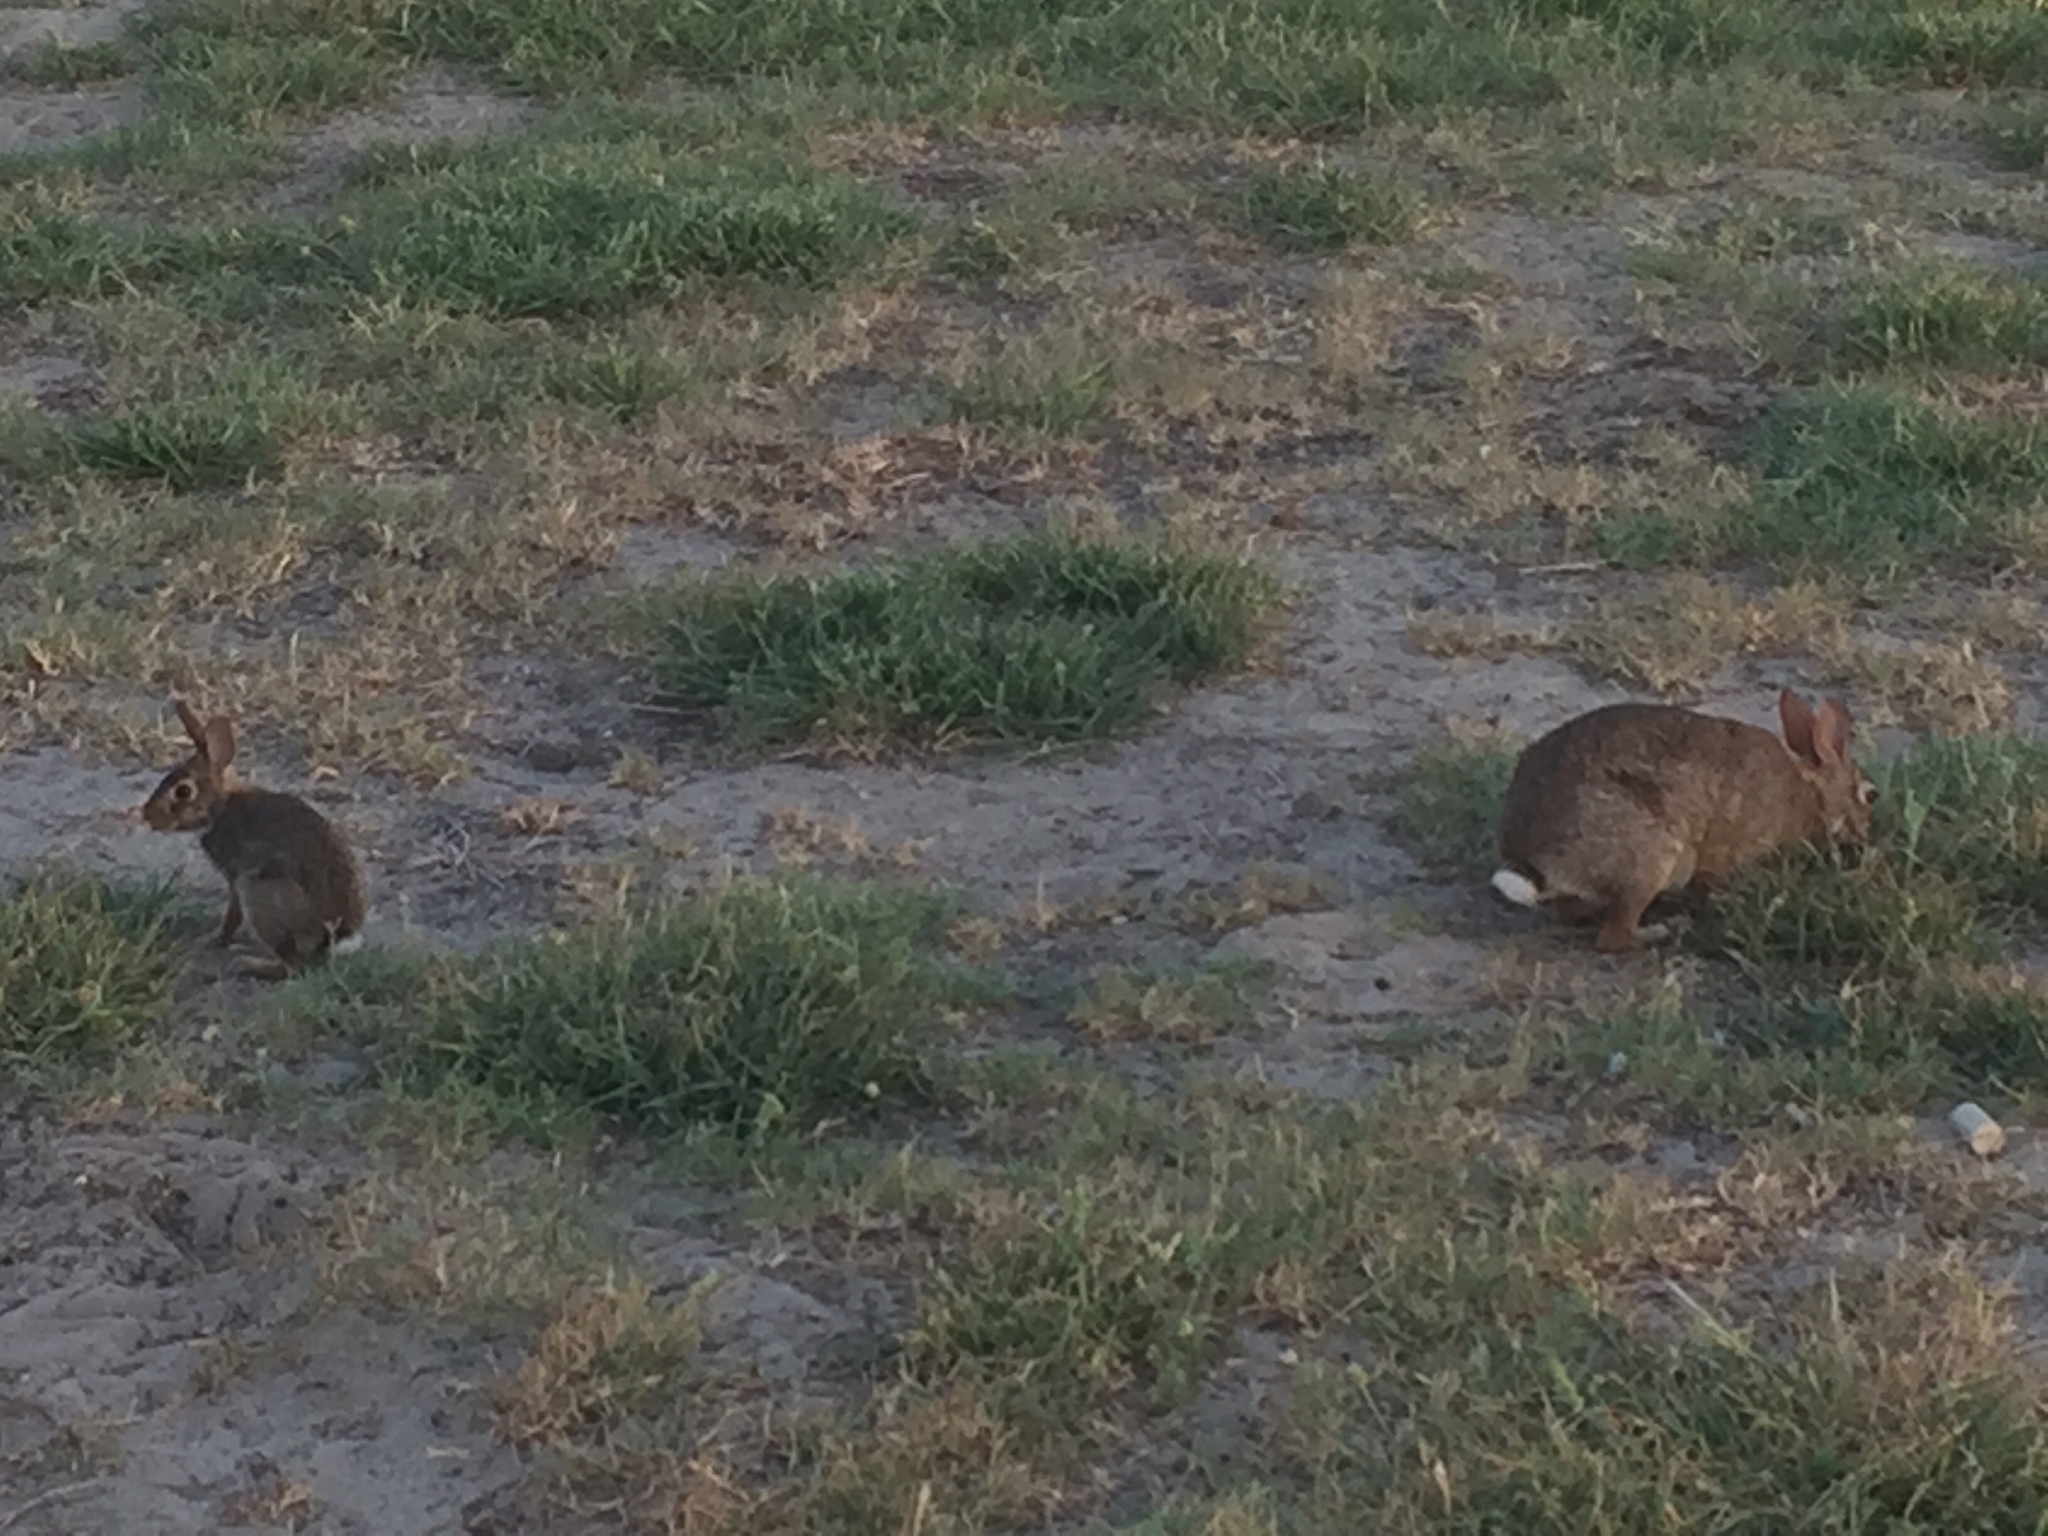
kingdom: Animalia
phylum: Chordata
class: Mammalia
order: Lagomorpha
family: Leporidae
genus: Sylvilagus
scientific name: Sylvilagus floridanus
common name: Eastern cottontail
